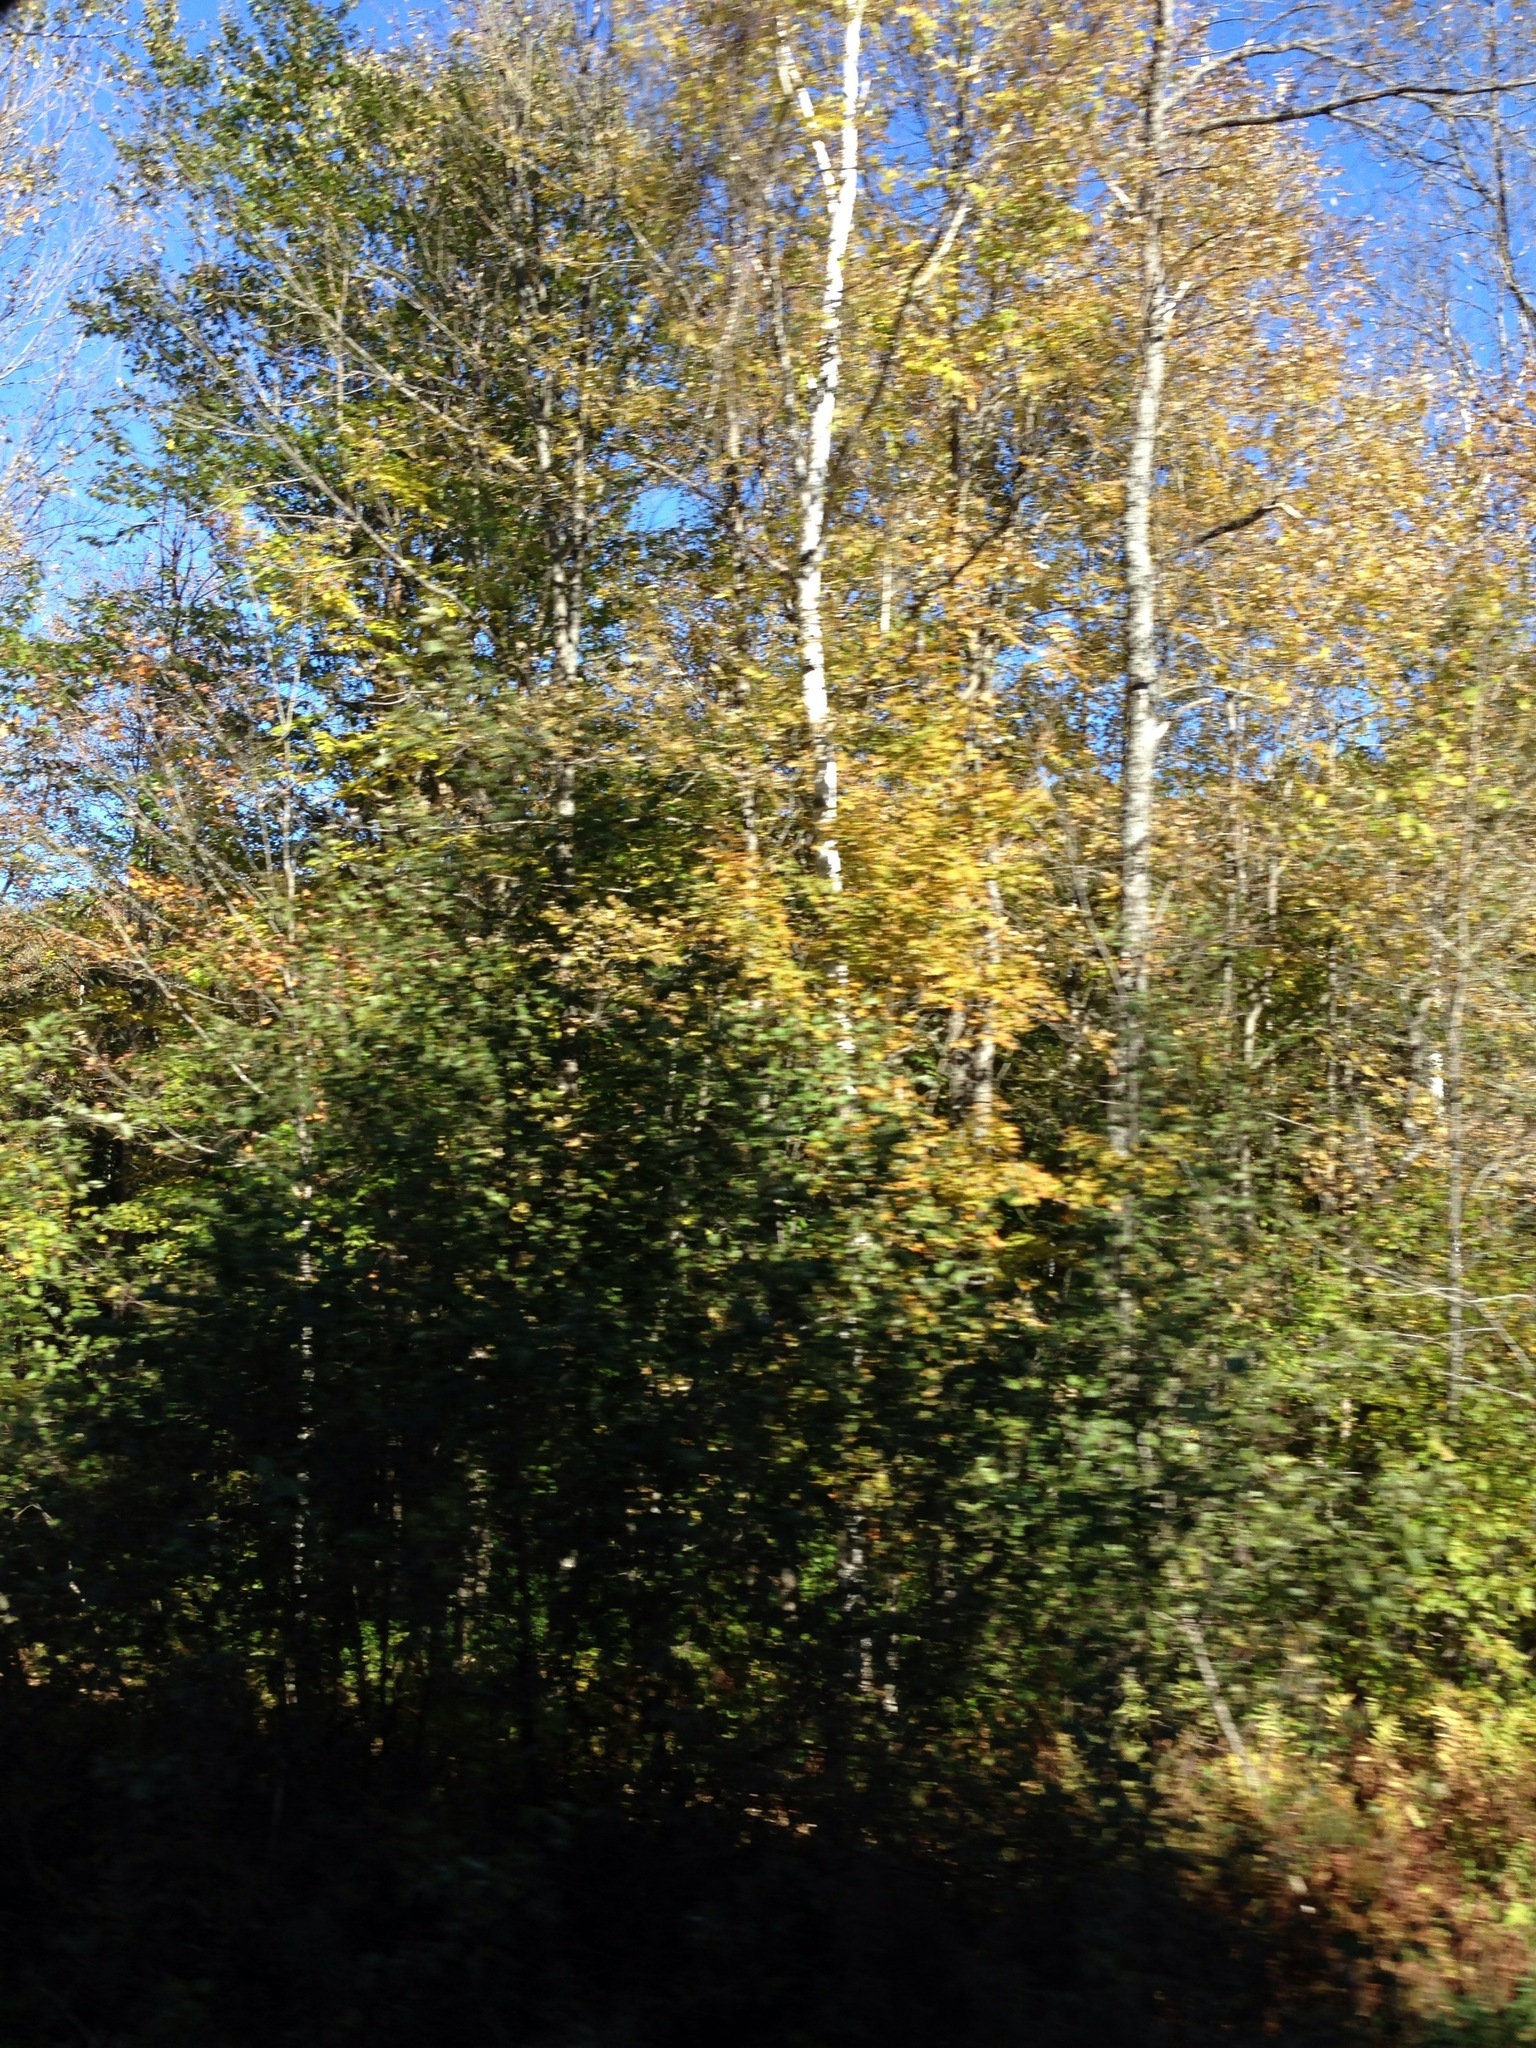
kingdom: Plantae
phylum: Tracheophyta
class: Magnoliopsida
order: Fagales
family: Betulaceae
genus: Betula
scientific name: Betula papyrifera
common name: Paper birch
